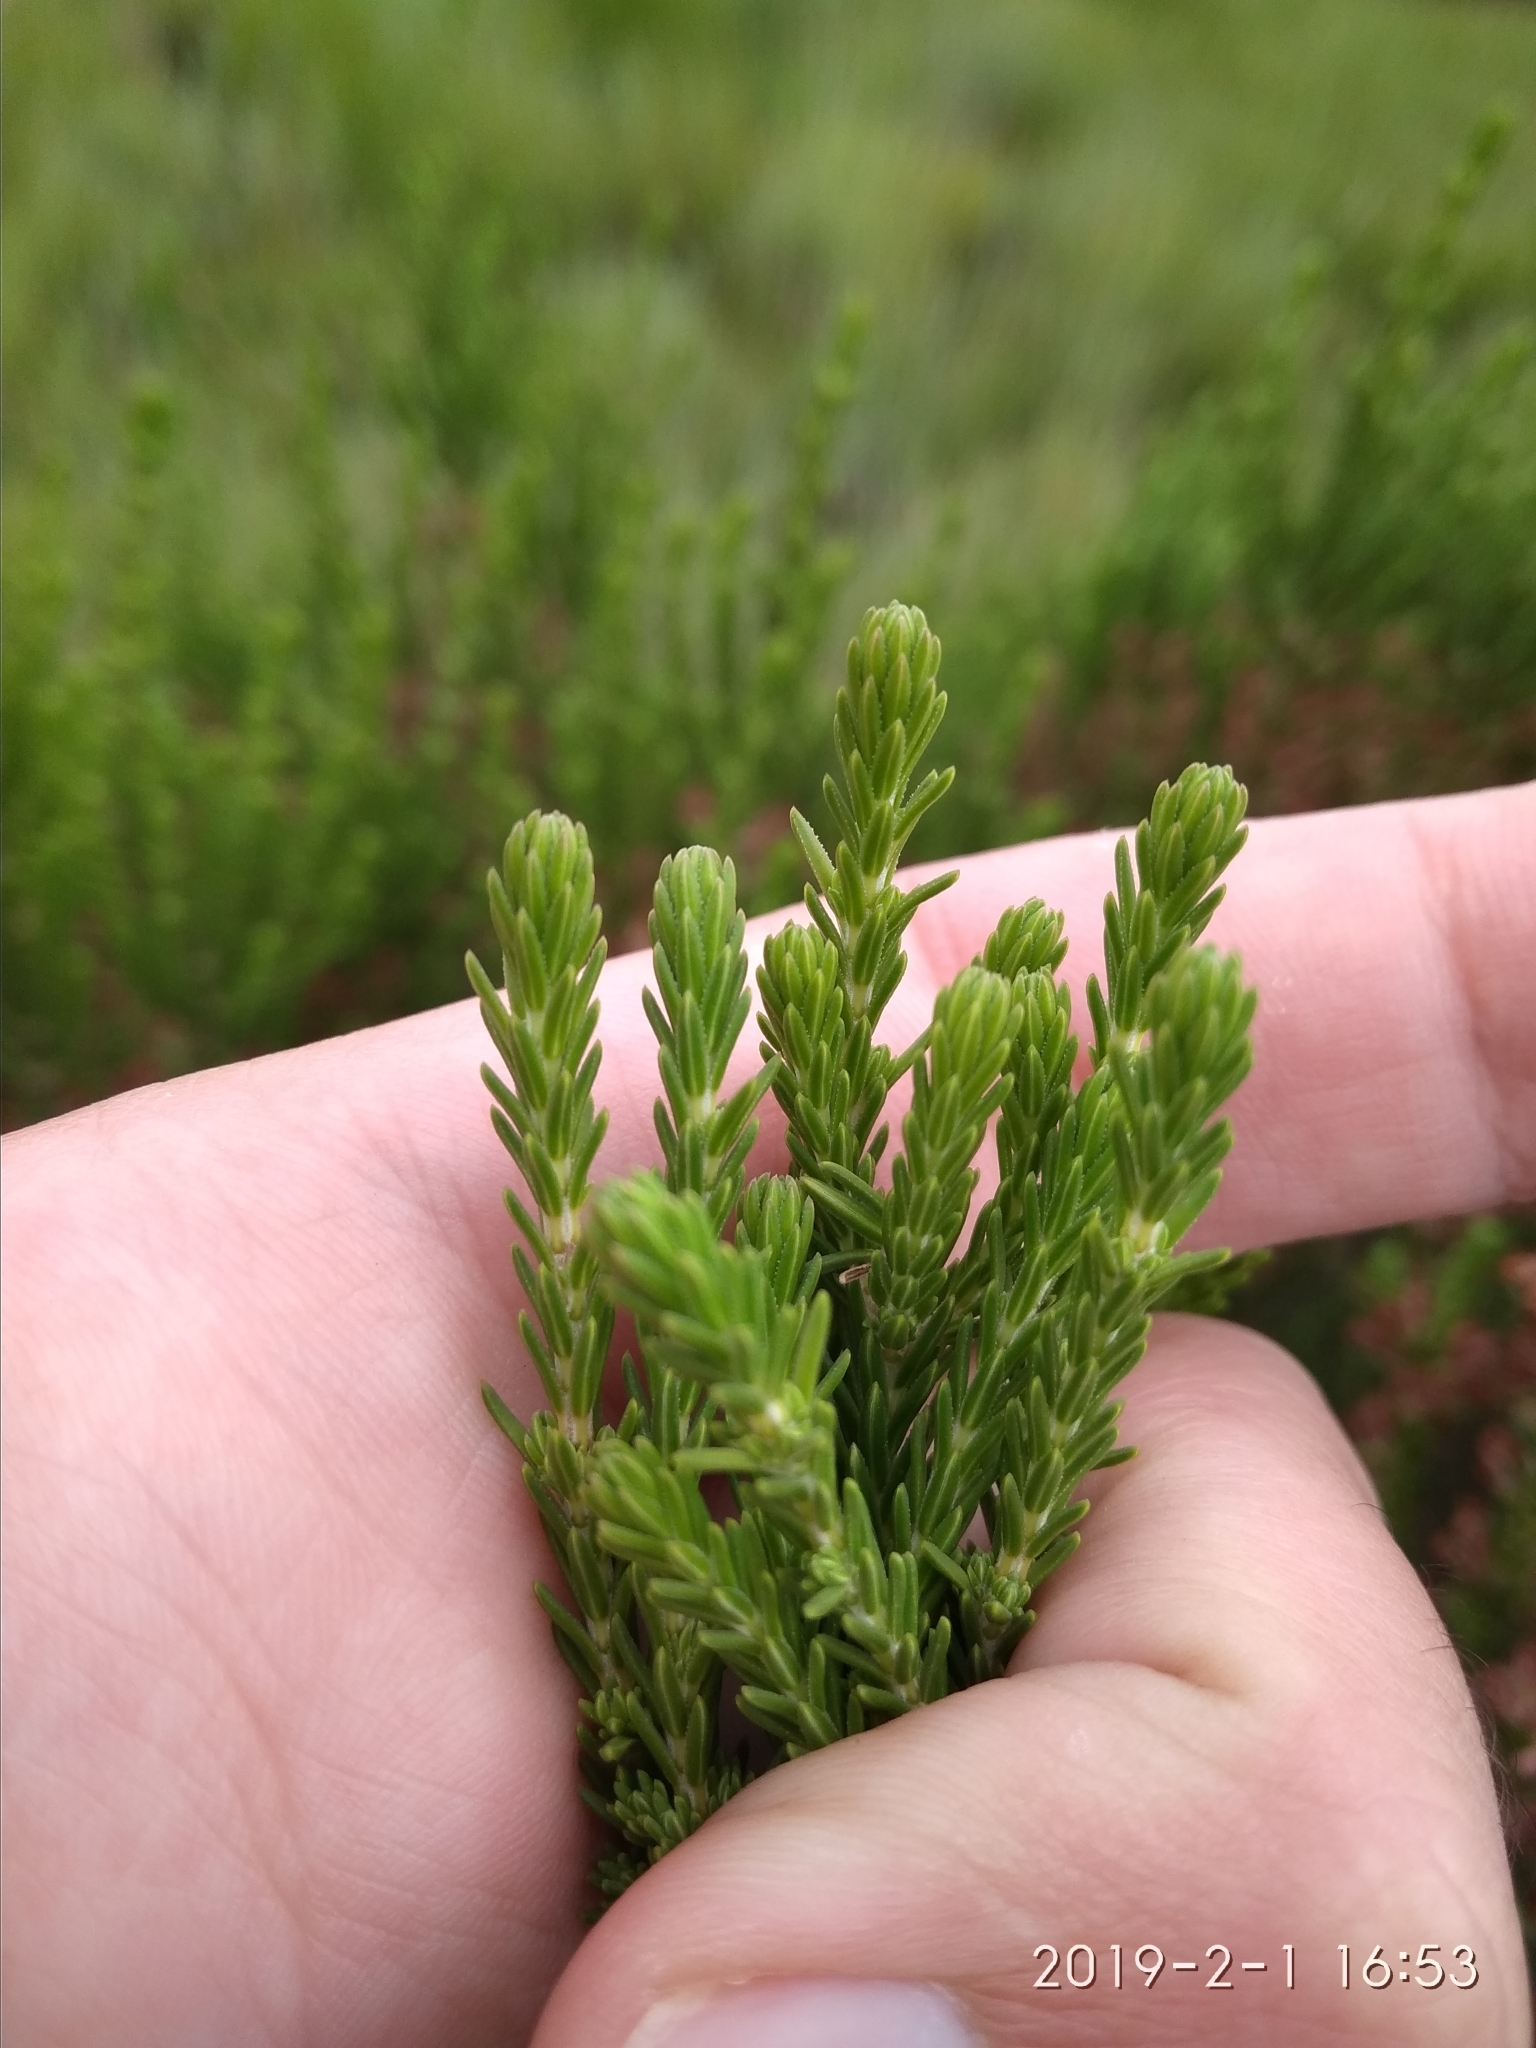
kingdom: Plantae
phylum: Tracheophyta
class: Magnoliopsida
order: Ericales
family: Ericaceae
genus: Erica
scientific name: Erica caffrorum
